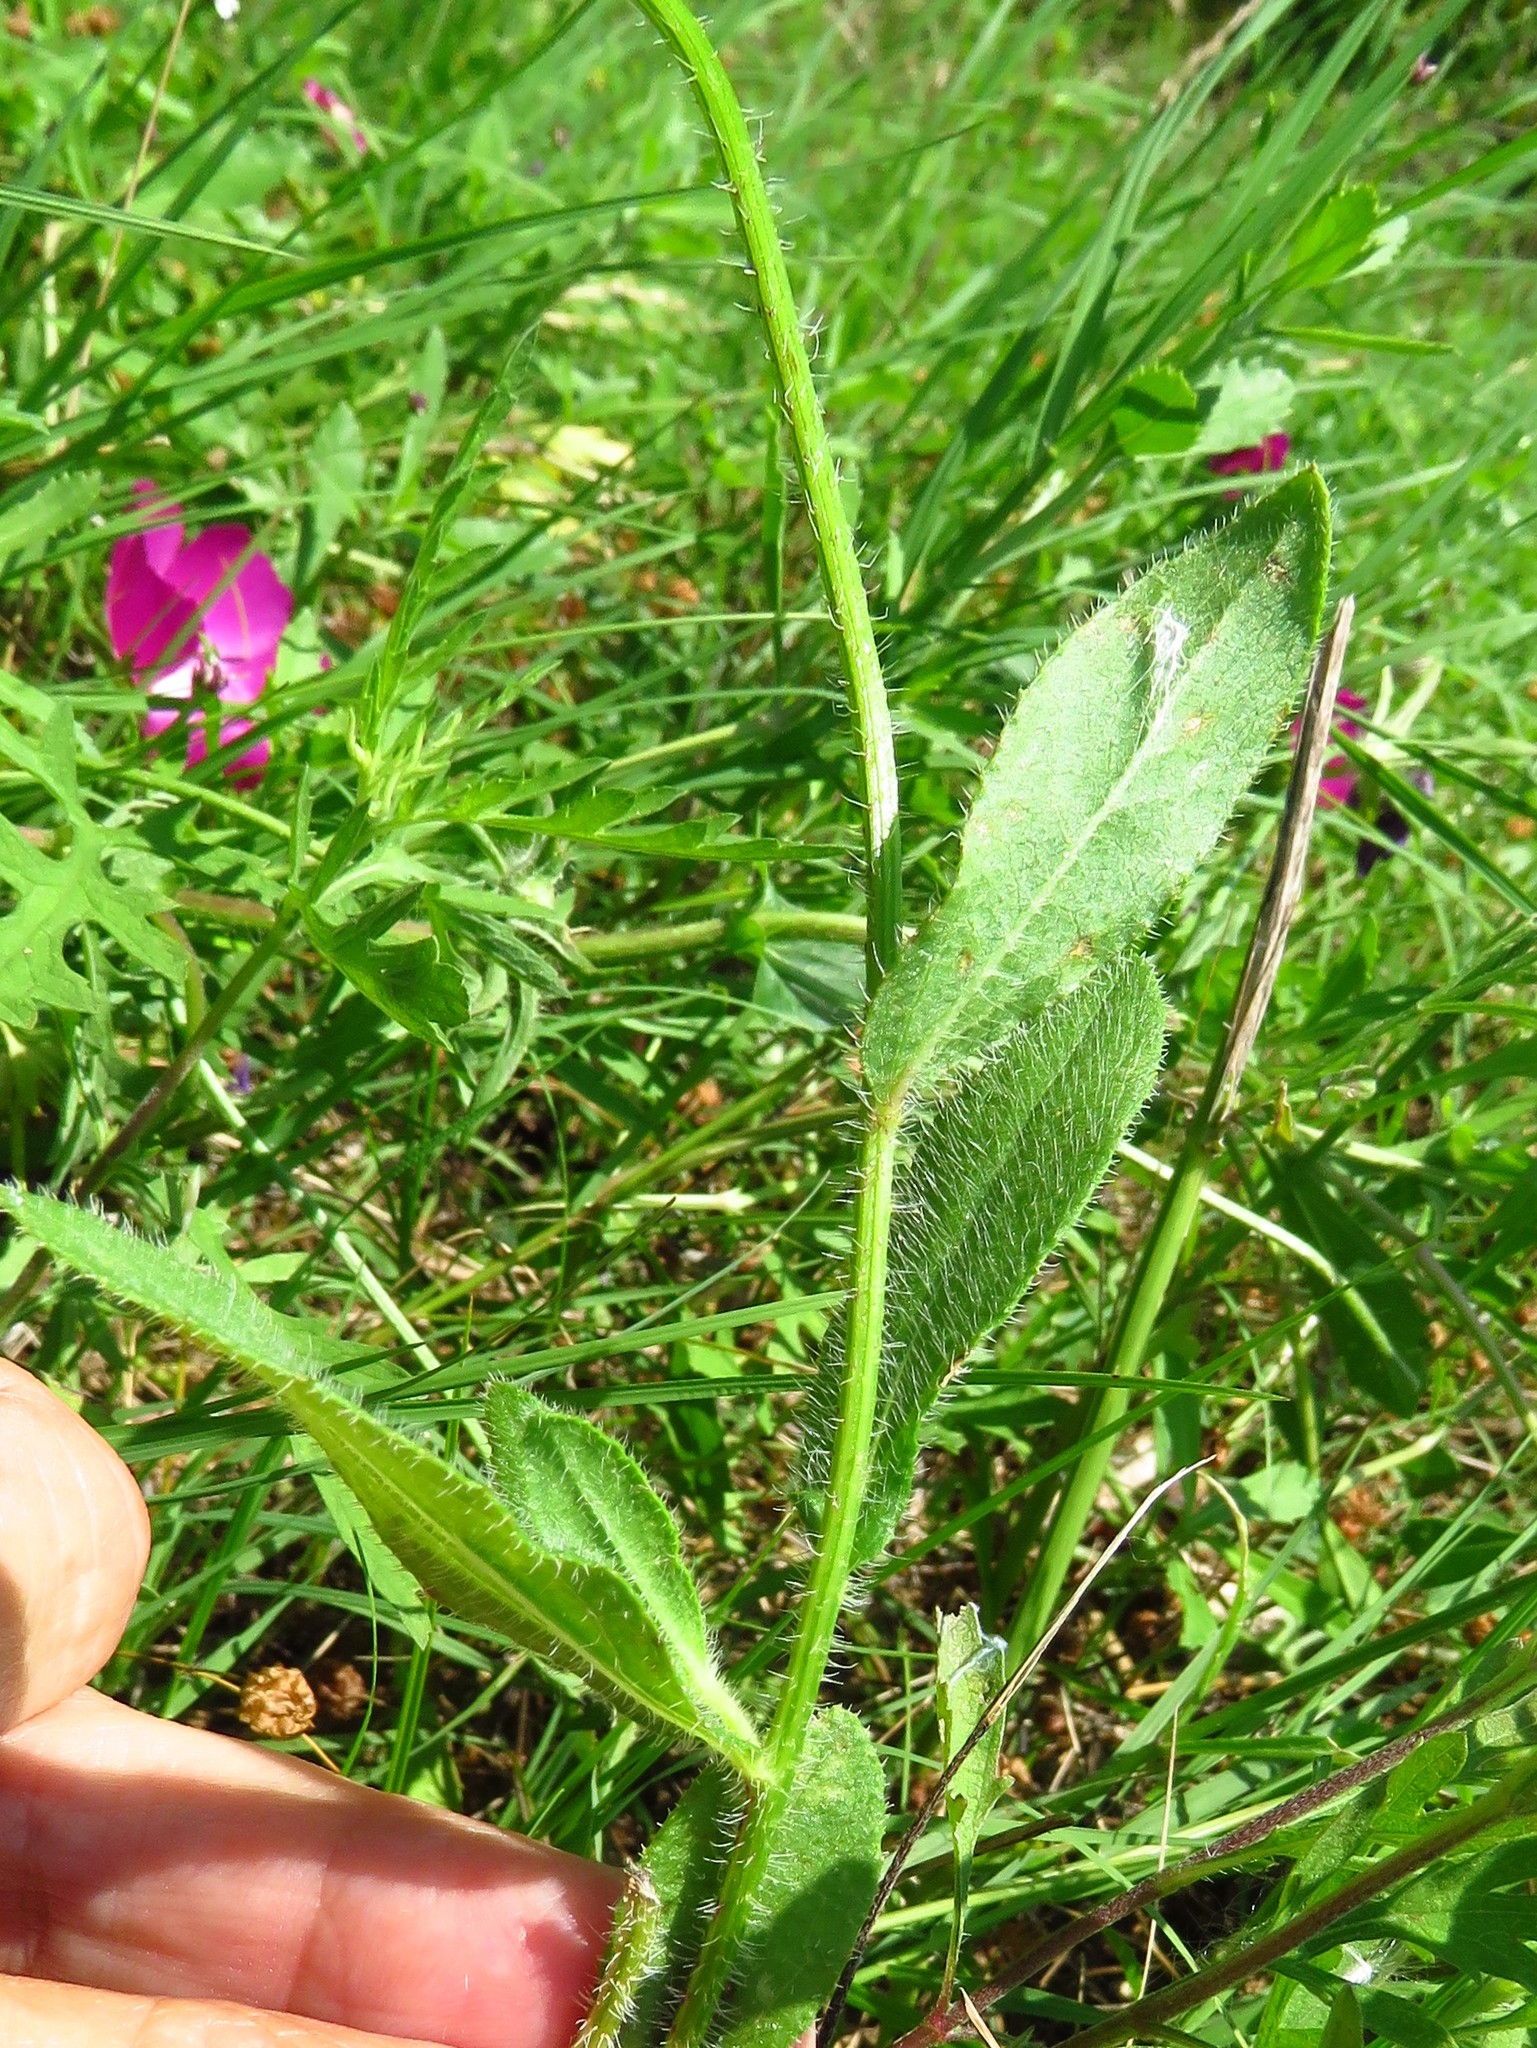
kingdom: Plantae
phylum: Tracheophyta
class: Magnoliopsida
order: Asterales
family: Asteraceae
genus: Rudbeckia
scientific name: Rudbeckia hirta
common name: Black-eyed-susan
